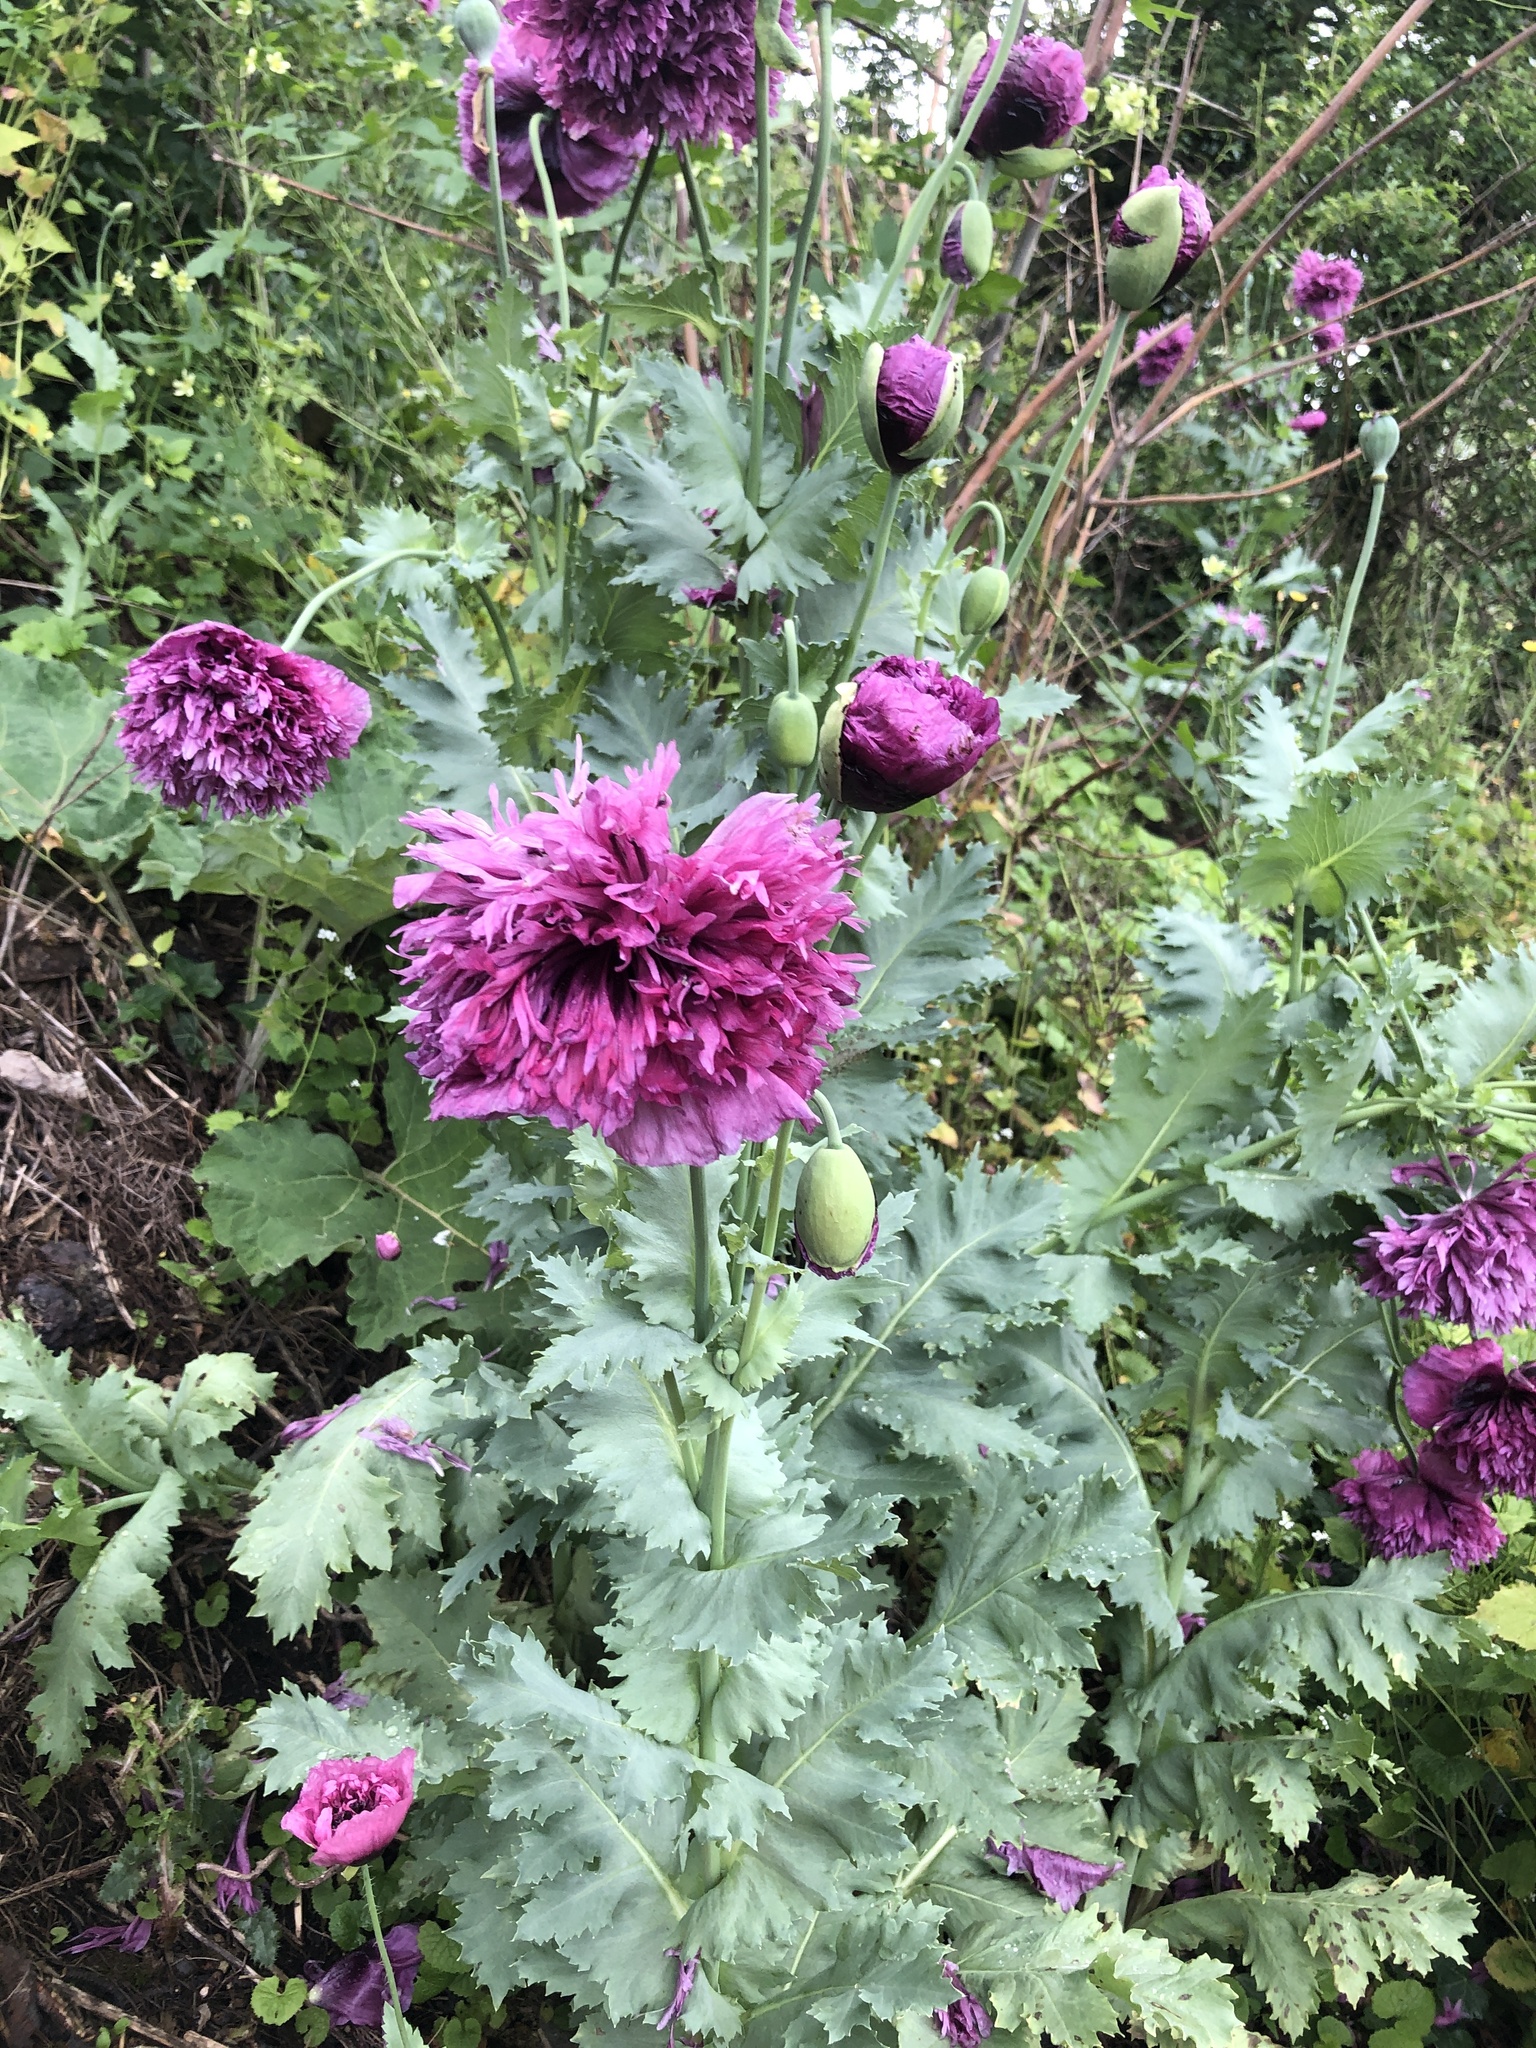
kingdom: Plantae
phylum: Tracheophyta
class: Magnoliopsida
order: Ranunculales
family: Papaveraceae
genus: Papaver
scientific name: Papaver somniferum
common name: Opium poppy
